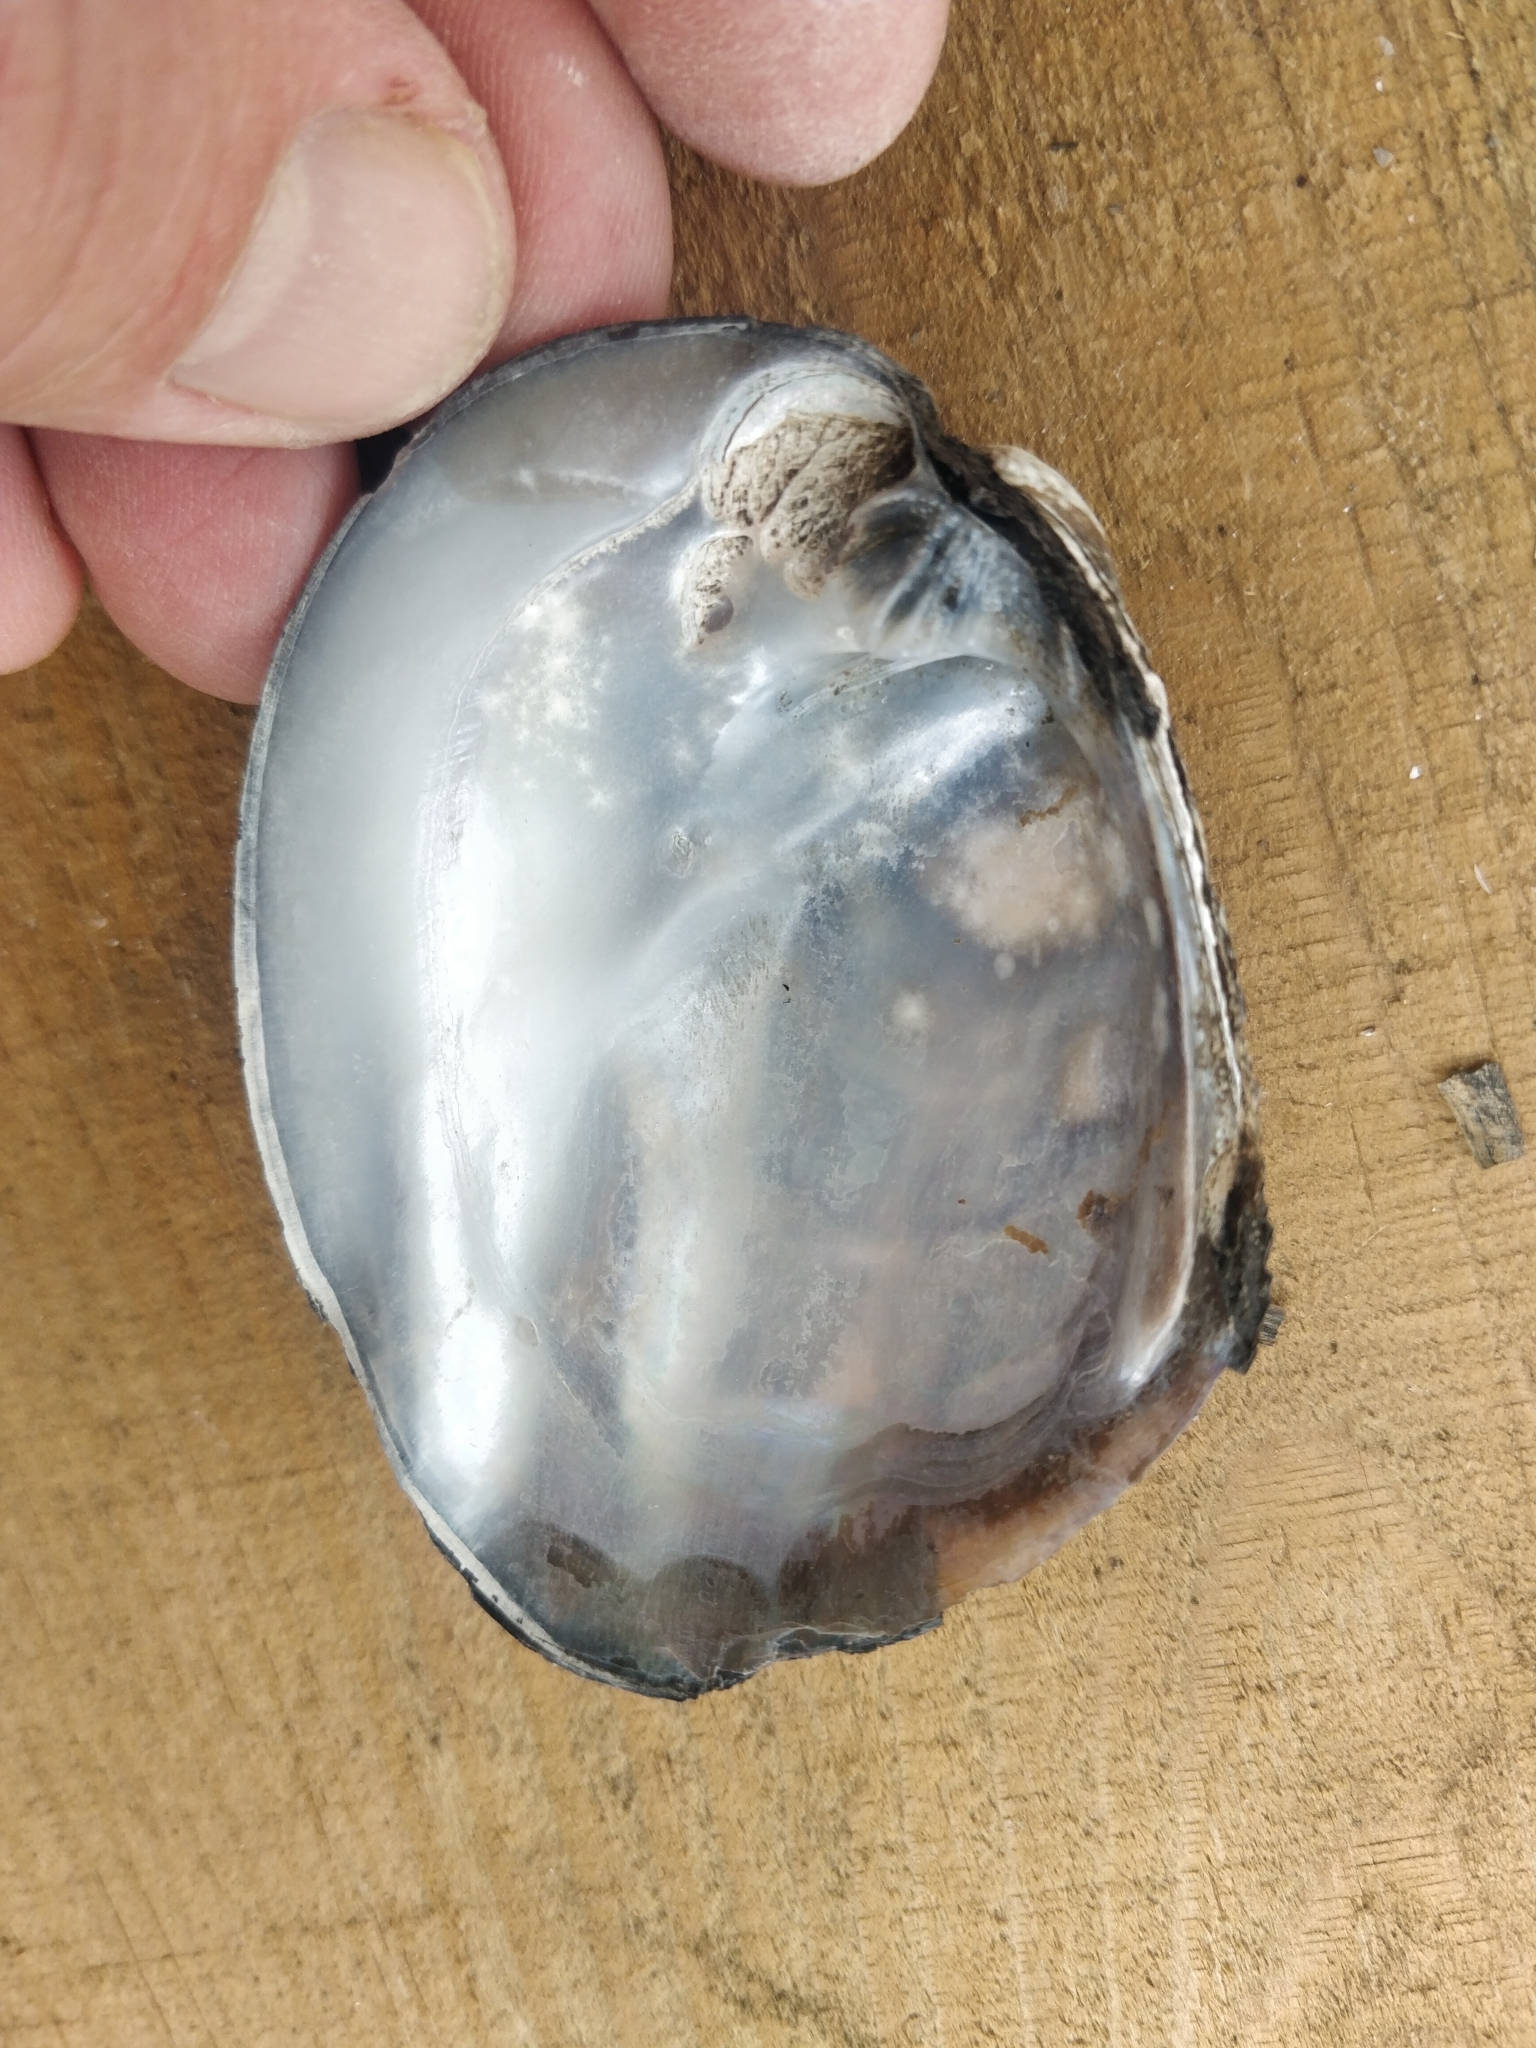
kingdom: Animalia
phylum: Mollusca
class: Bivalvia
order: Unionida
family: Unionidae
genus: Amblema
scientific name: Amblema plicata
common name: Threeridge
